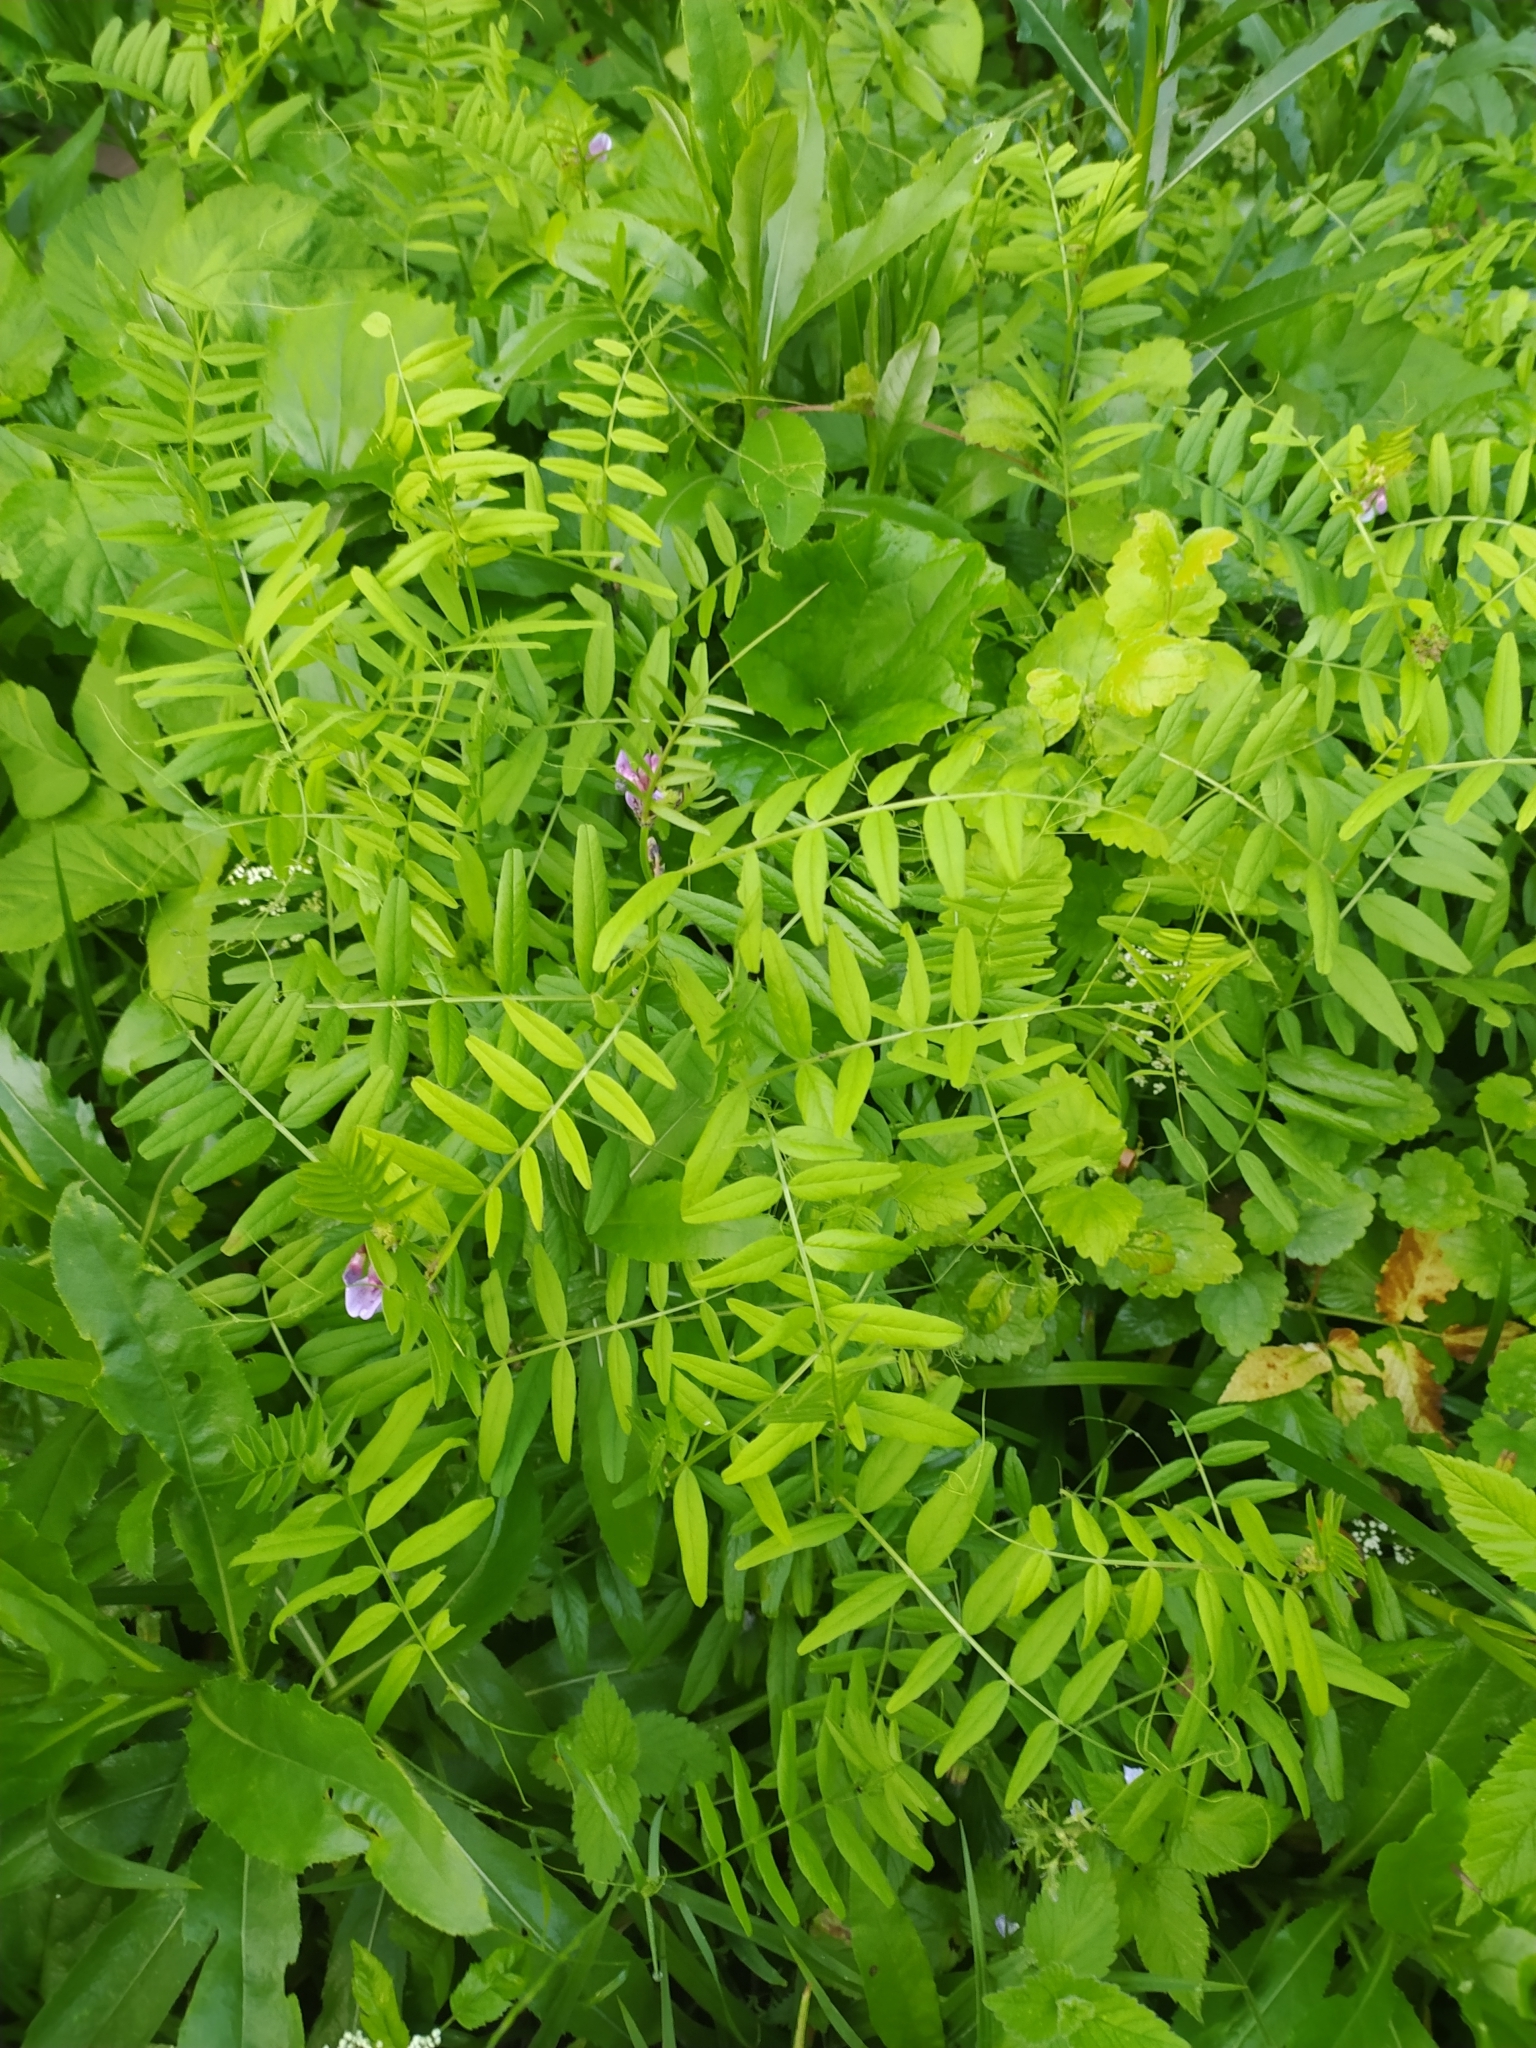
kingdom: Plantae
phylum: Tracheophyta
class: Magnoliopsida
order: Fabales
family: Fabaceae
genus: Vicia
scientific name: Vicia sepium
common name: Bush vetch
